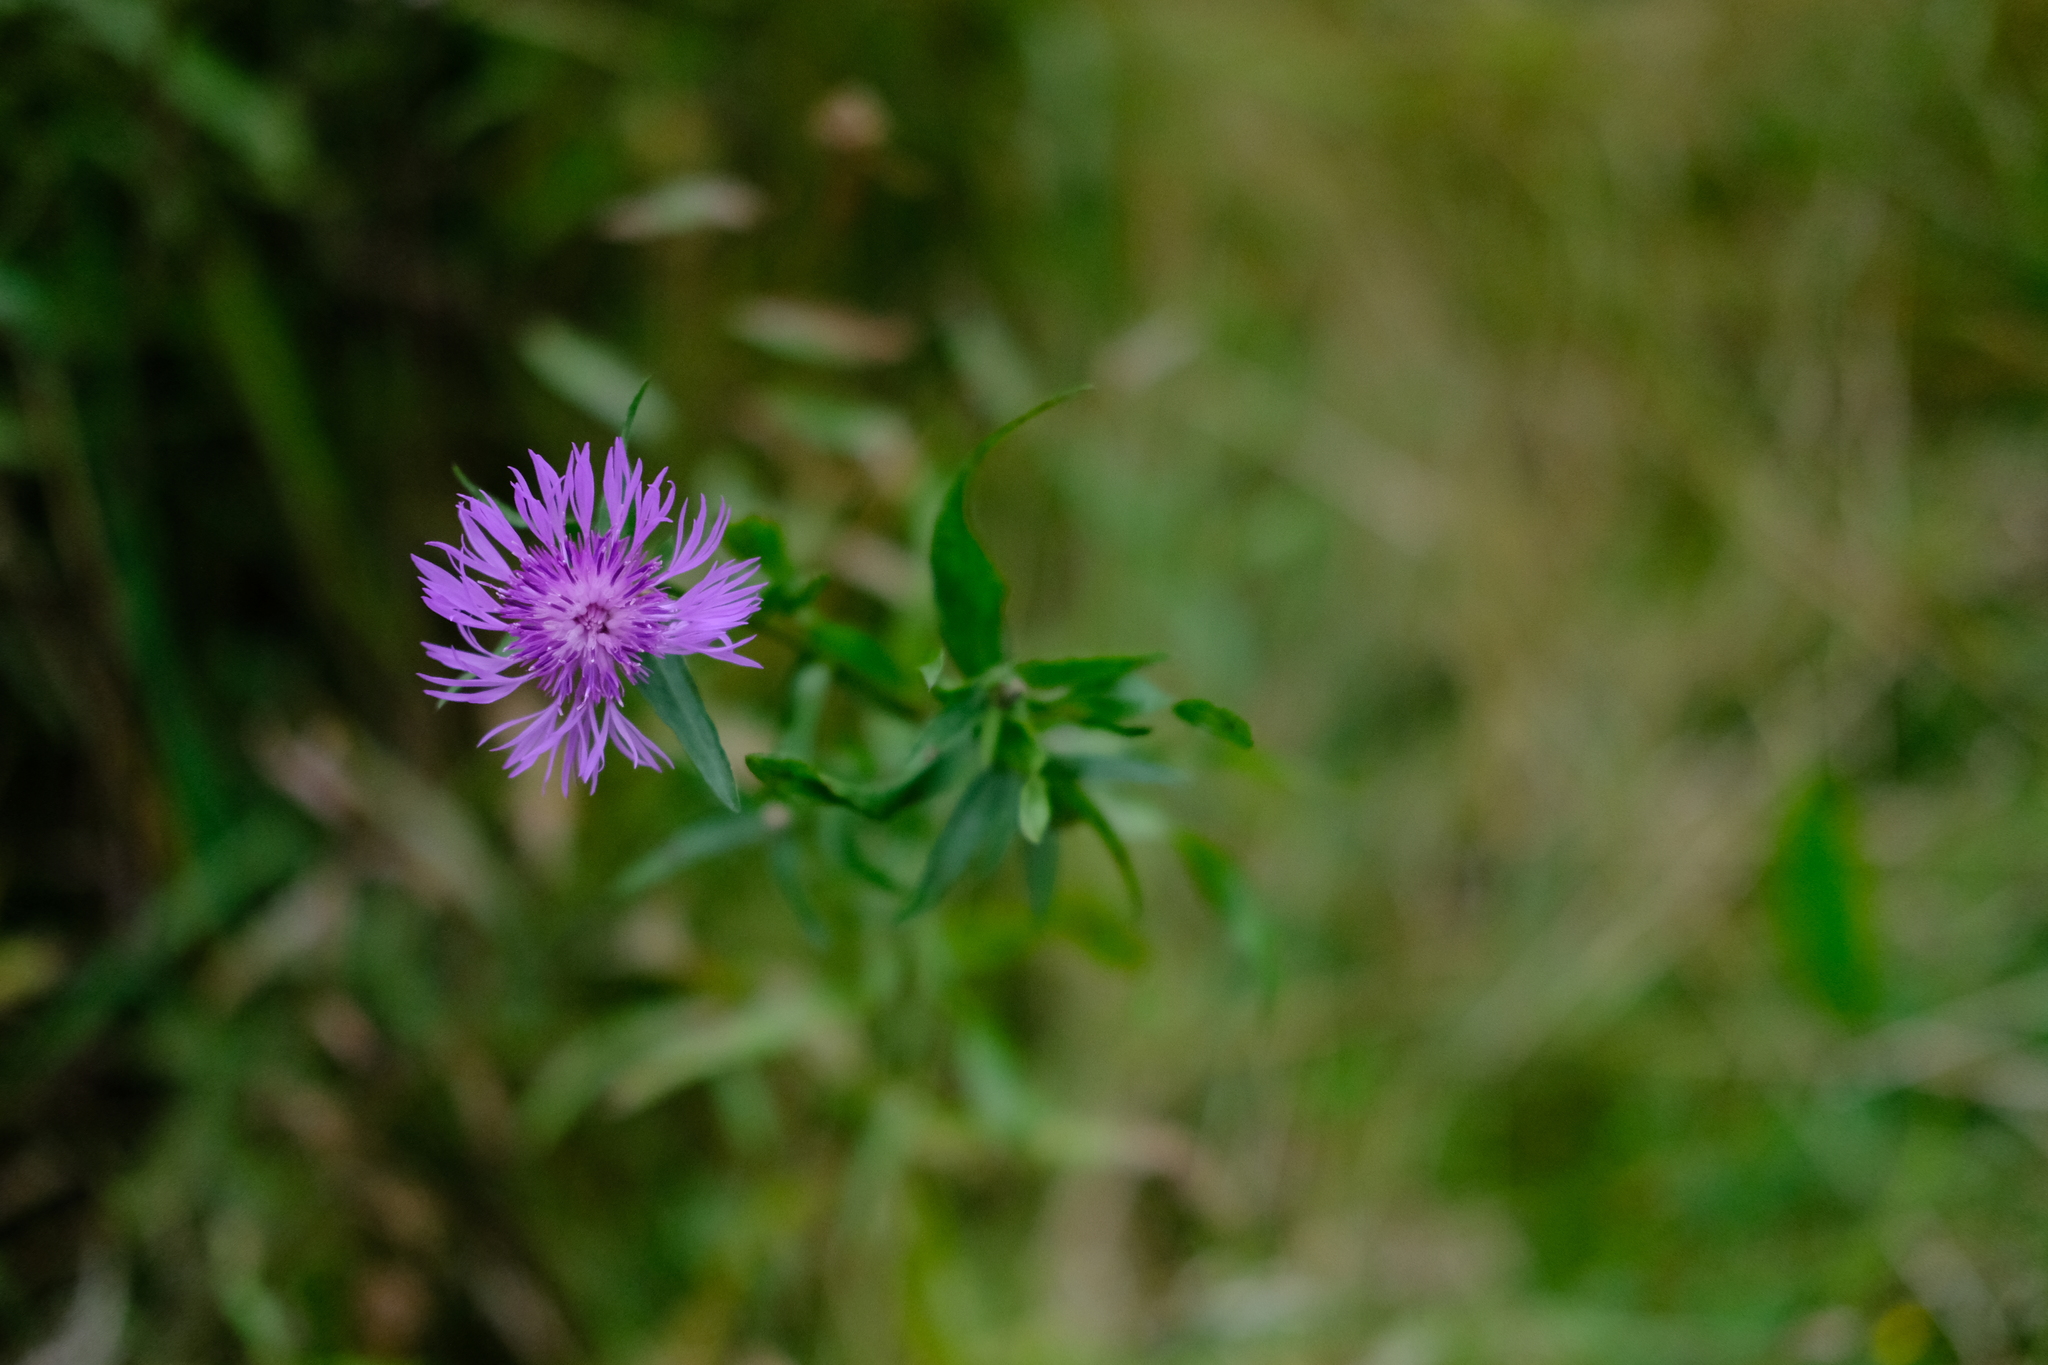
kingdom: Plantae
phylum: Tracheophyta
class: Magnoliopsida
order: Asterales
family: Asteraceae
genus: Centaurea
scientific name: Centaurea jacea
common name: Brown knapweed
